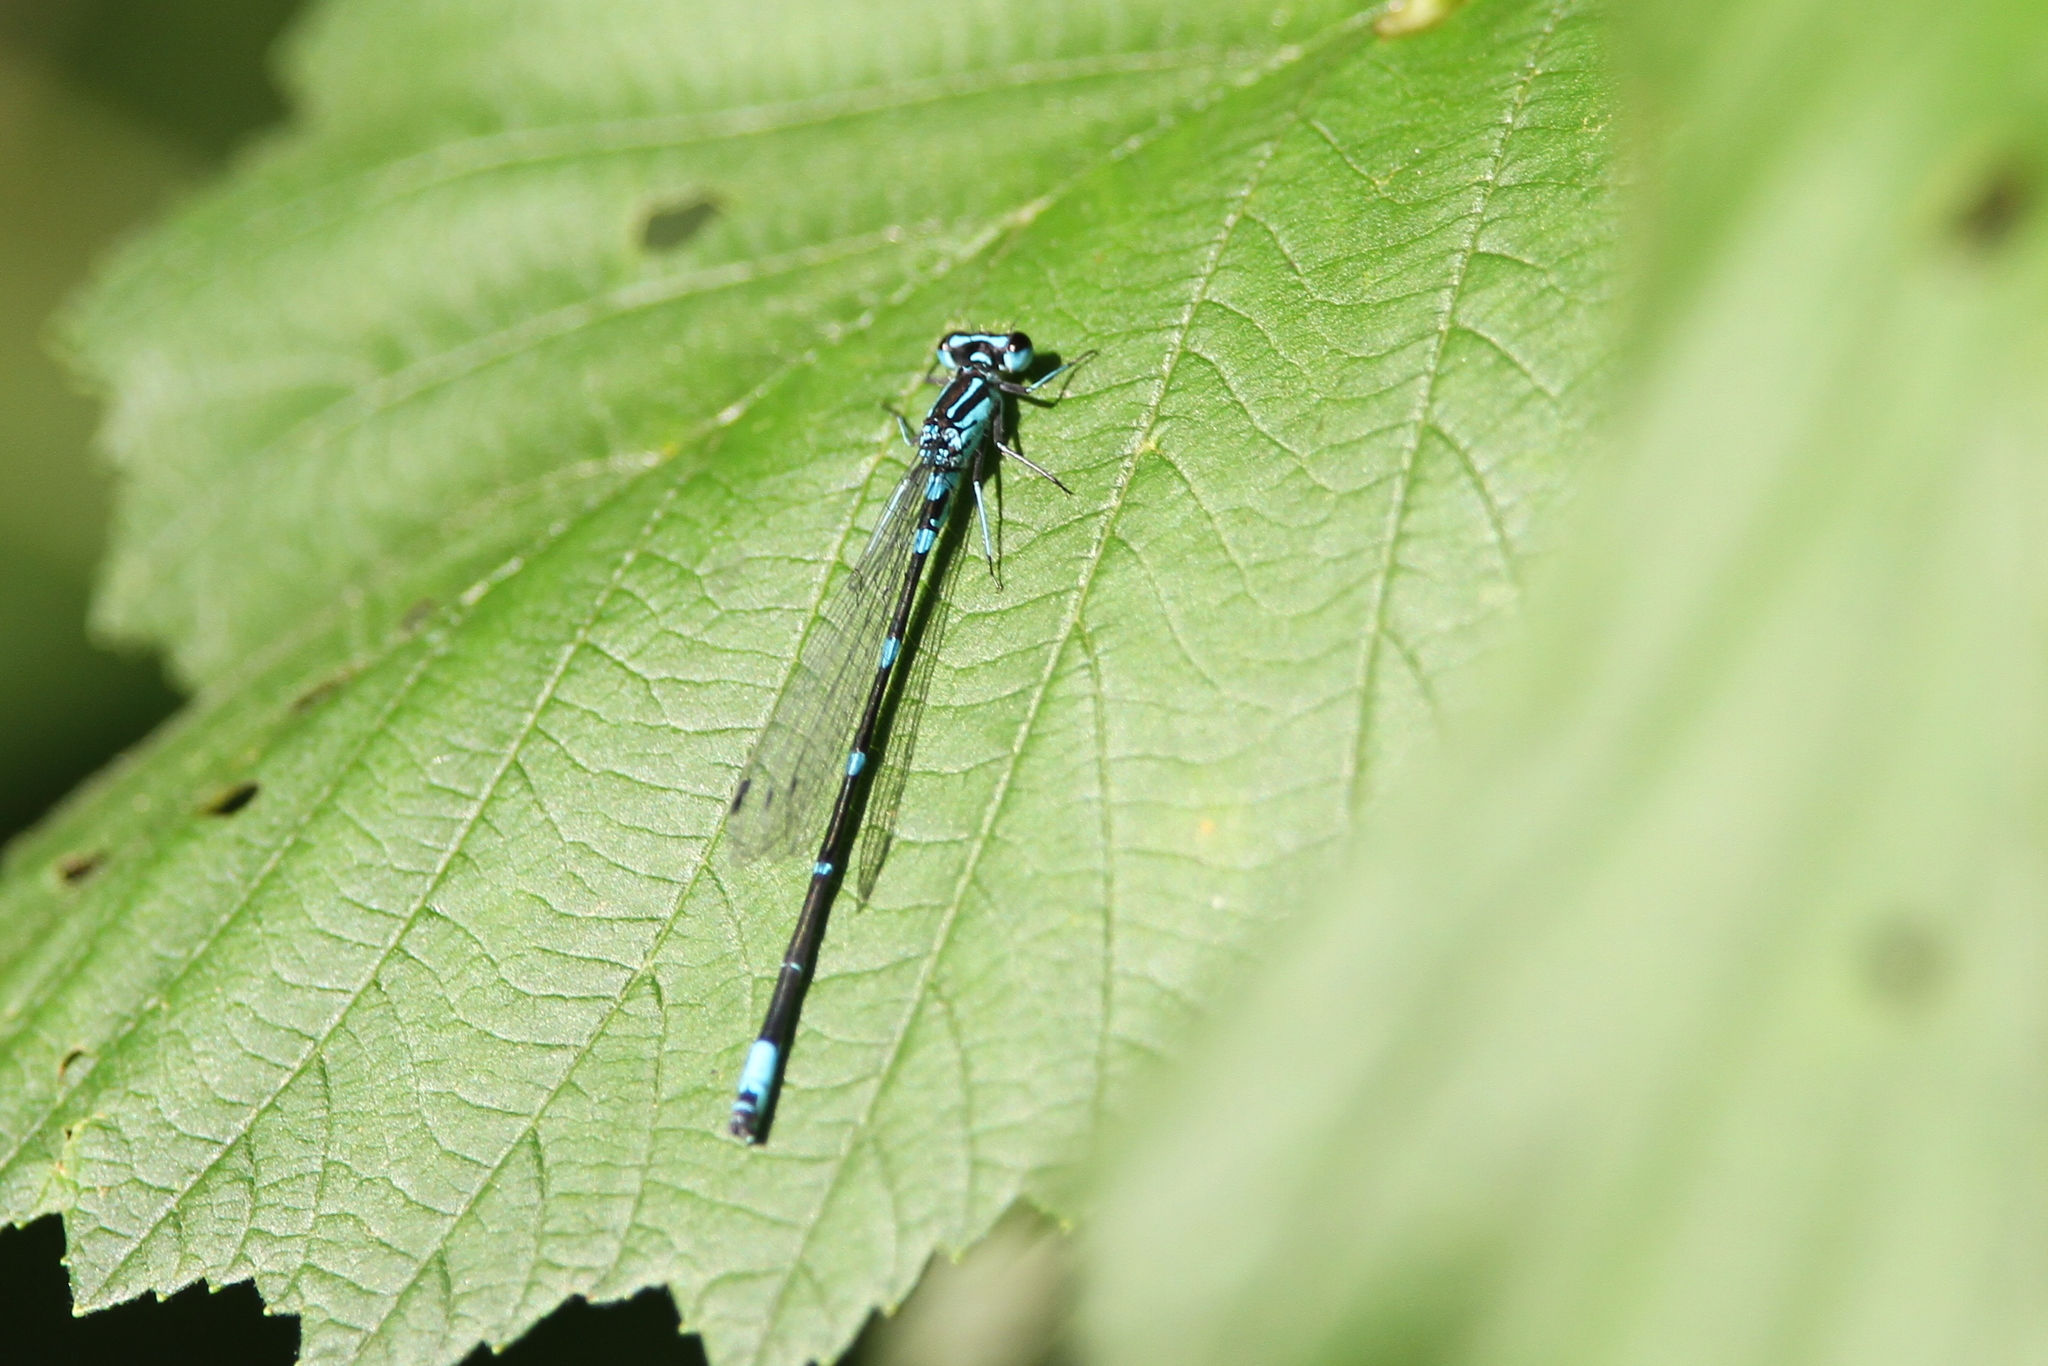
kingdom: Animalia
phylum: Arthropoda
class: Insecta
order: Odonata
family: Coenagrionidae
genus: Coenagrion
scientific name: Coenagrion pulchellum
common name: Variable bluet
